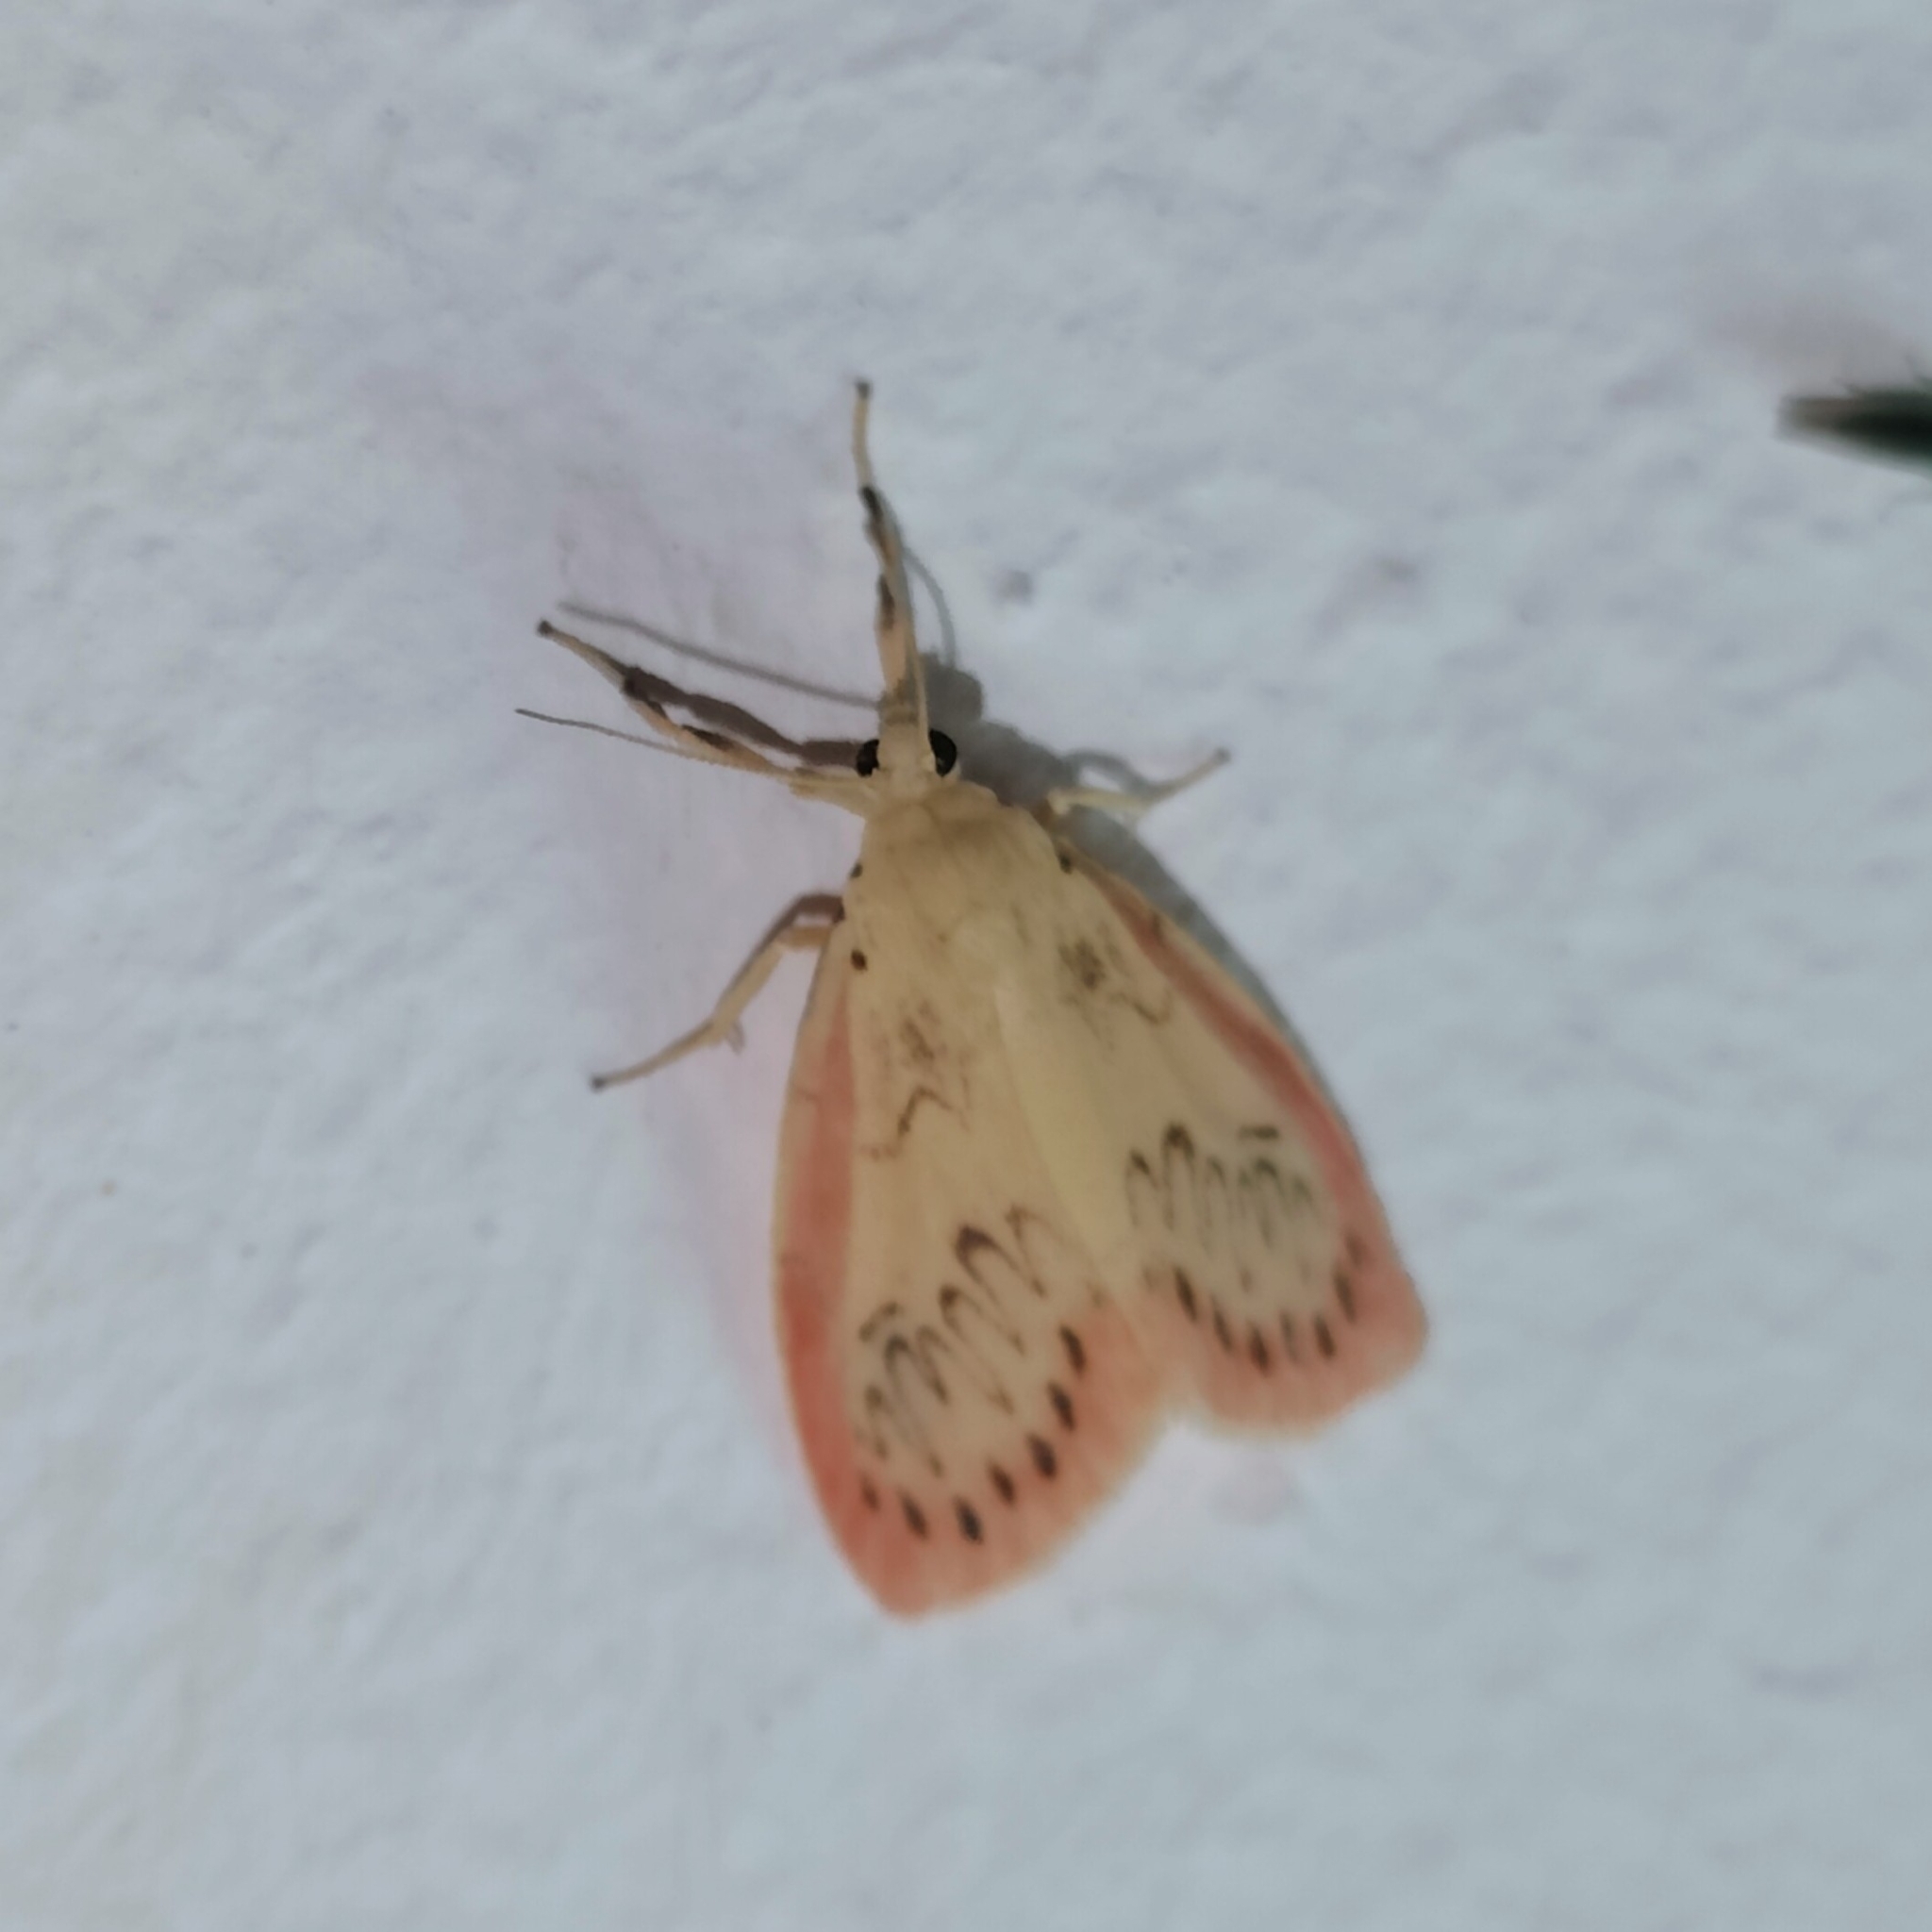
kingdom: Animalia
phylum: Arthropoda
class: Insecta
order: Lepidoptera
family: Erebidae
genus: Miltochrista
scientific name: Miltochrista miniata
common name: Rosy footman
